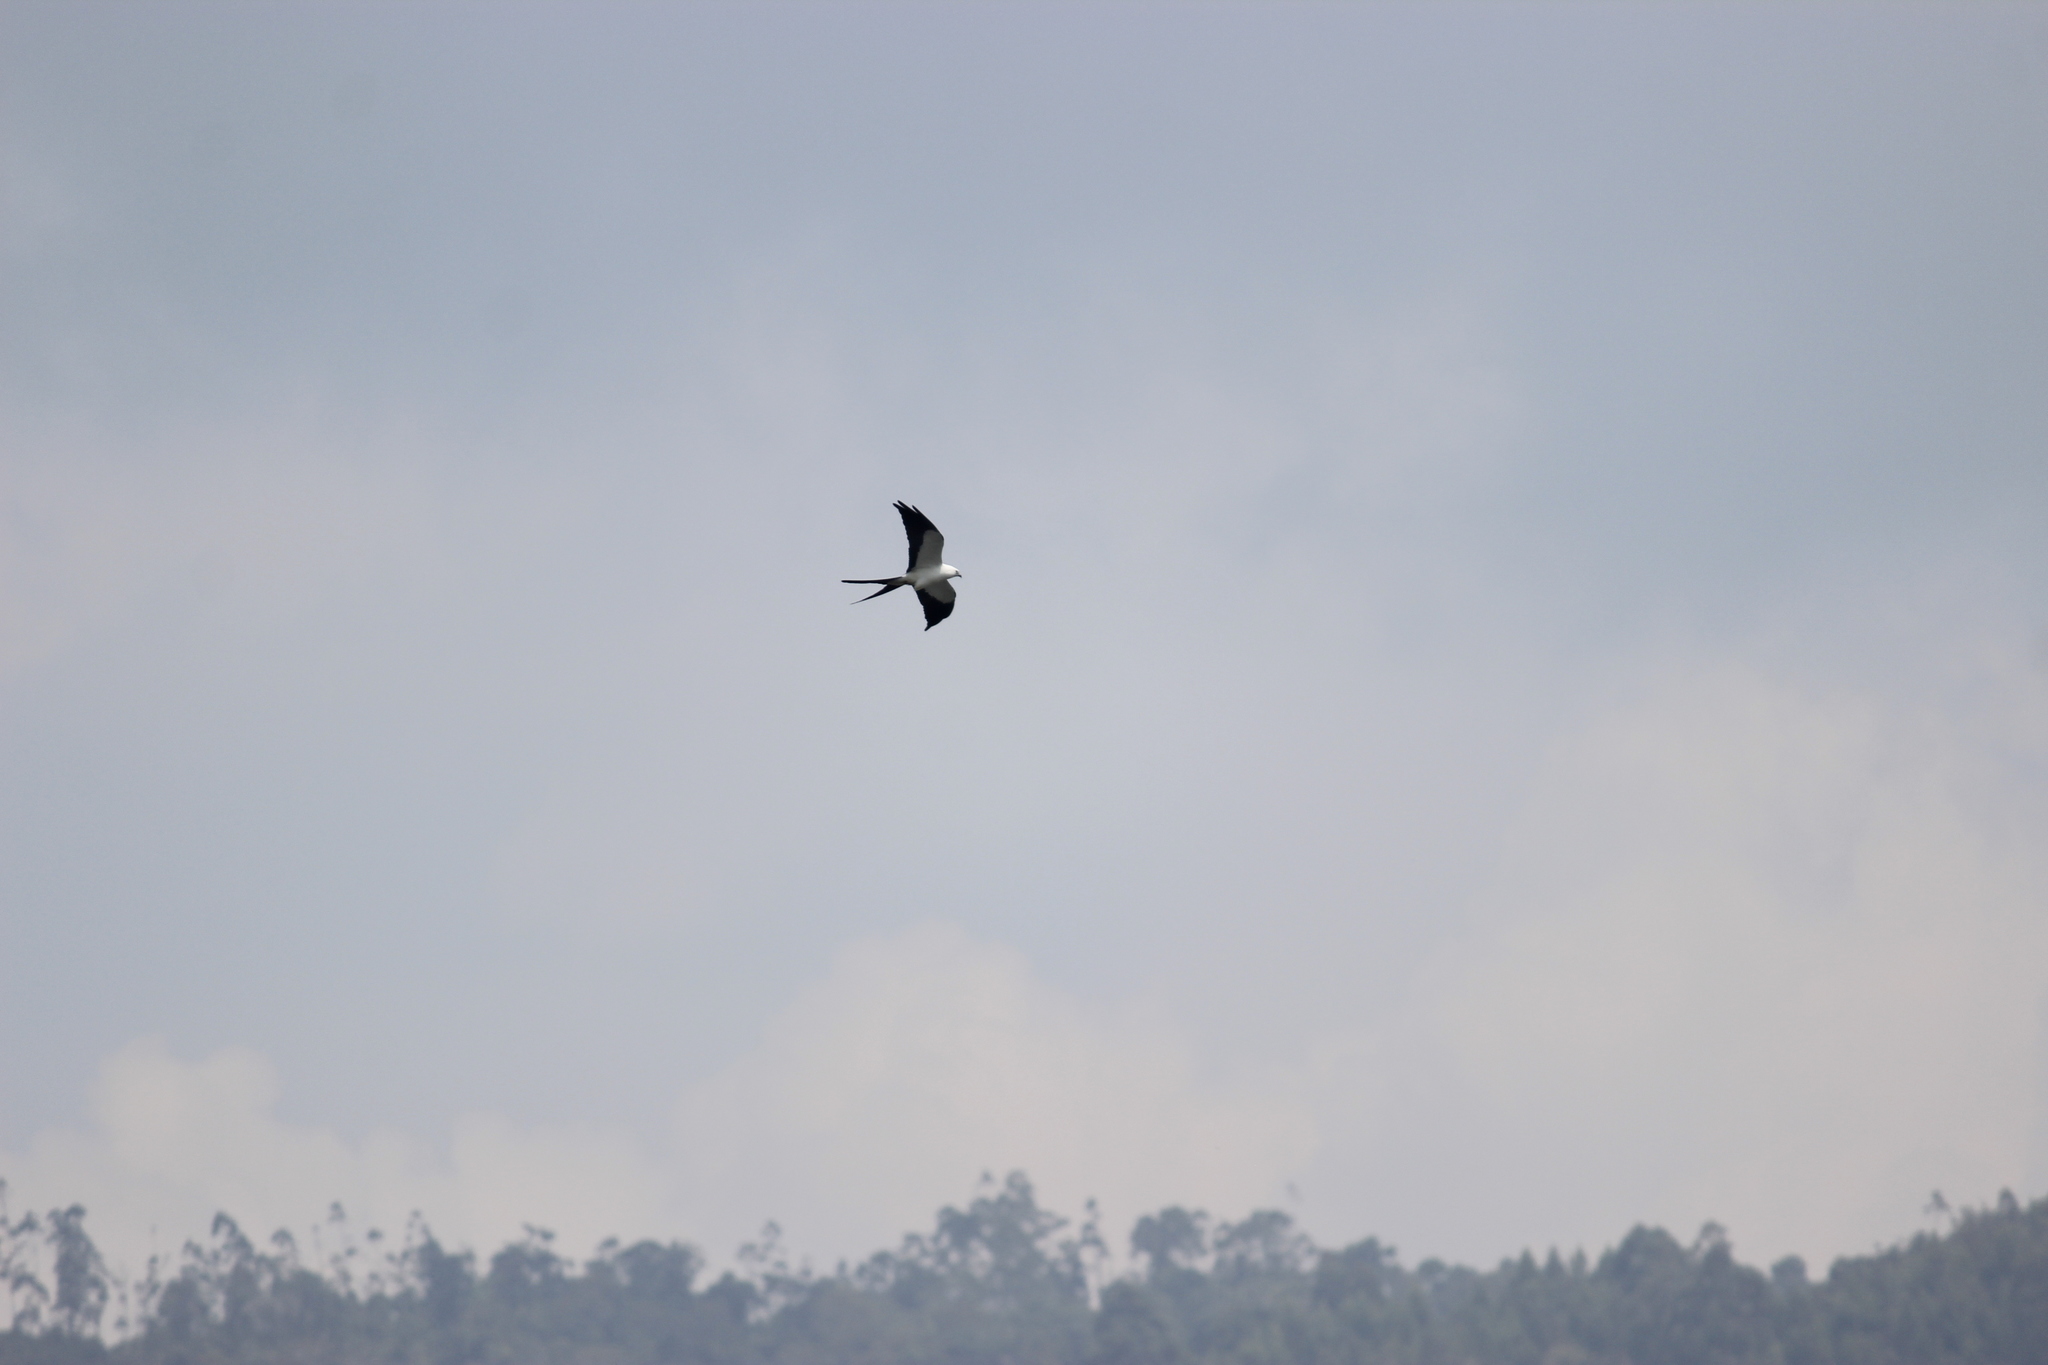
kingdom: Animalia
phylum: Chordata
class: Aves
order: Accipitriformes
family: Accipitridae
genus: Elanoides
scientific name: Elanoides forficatus
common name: Swallow-tailed kite
